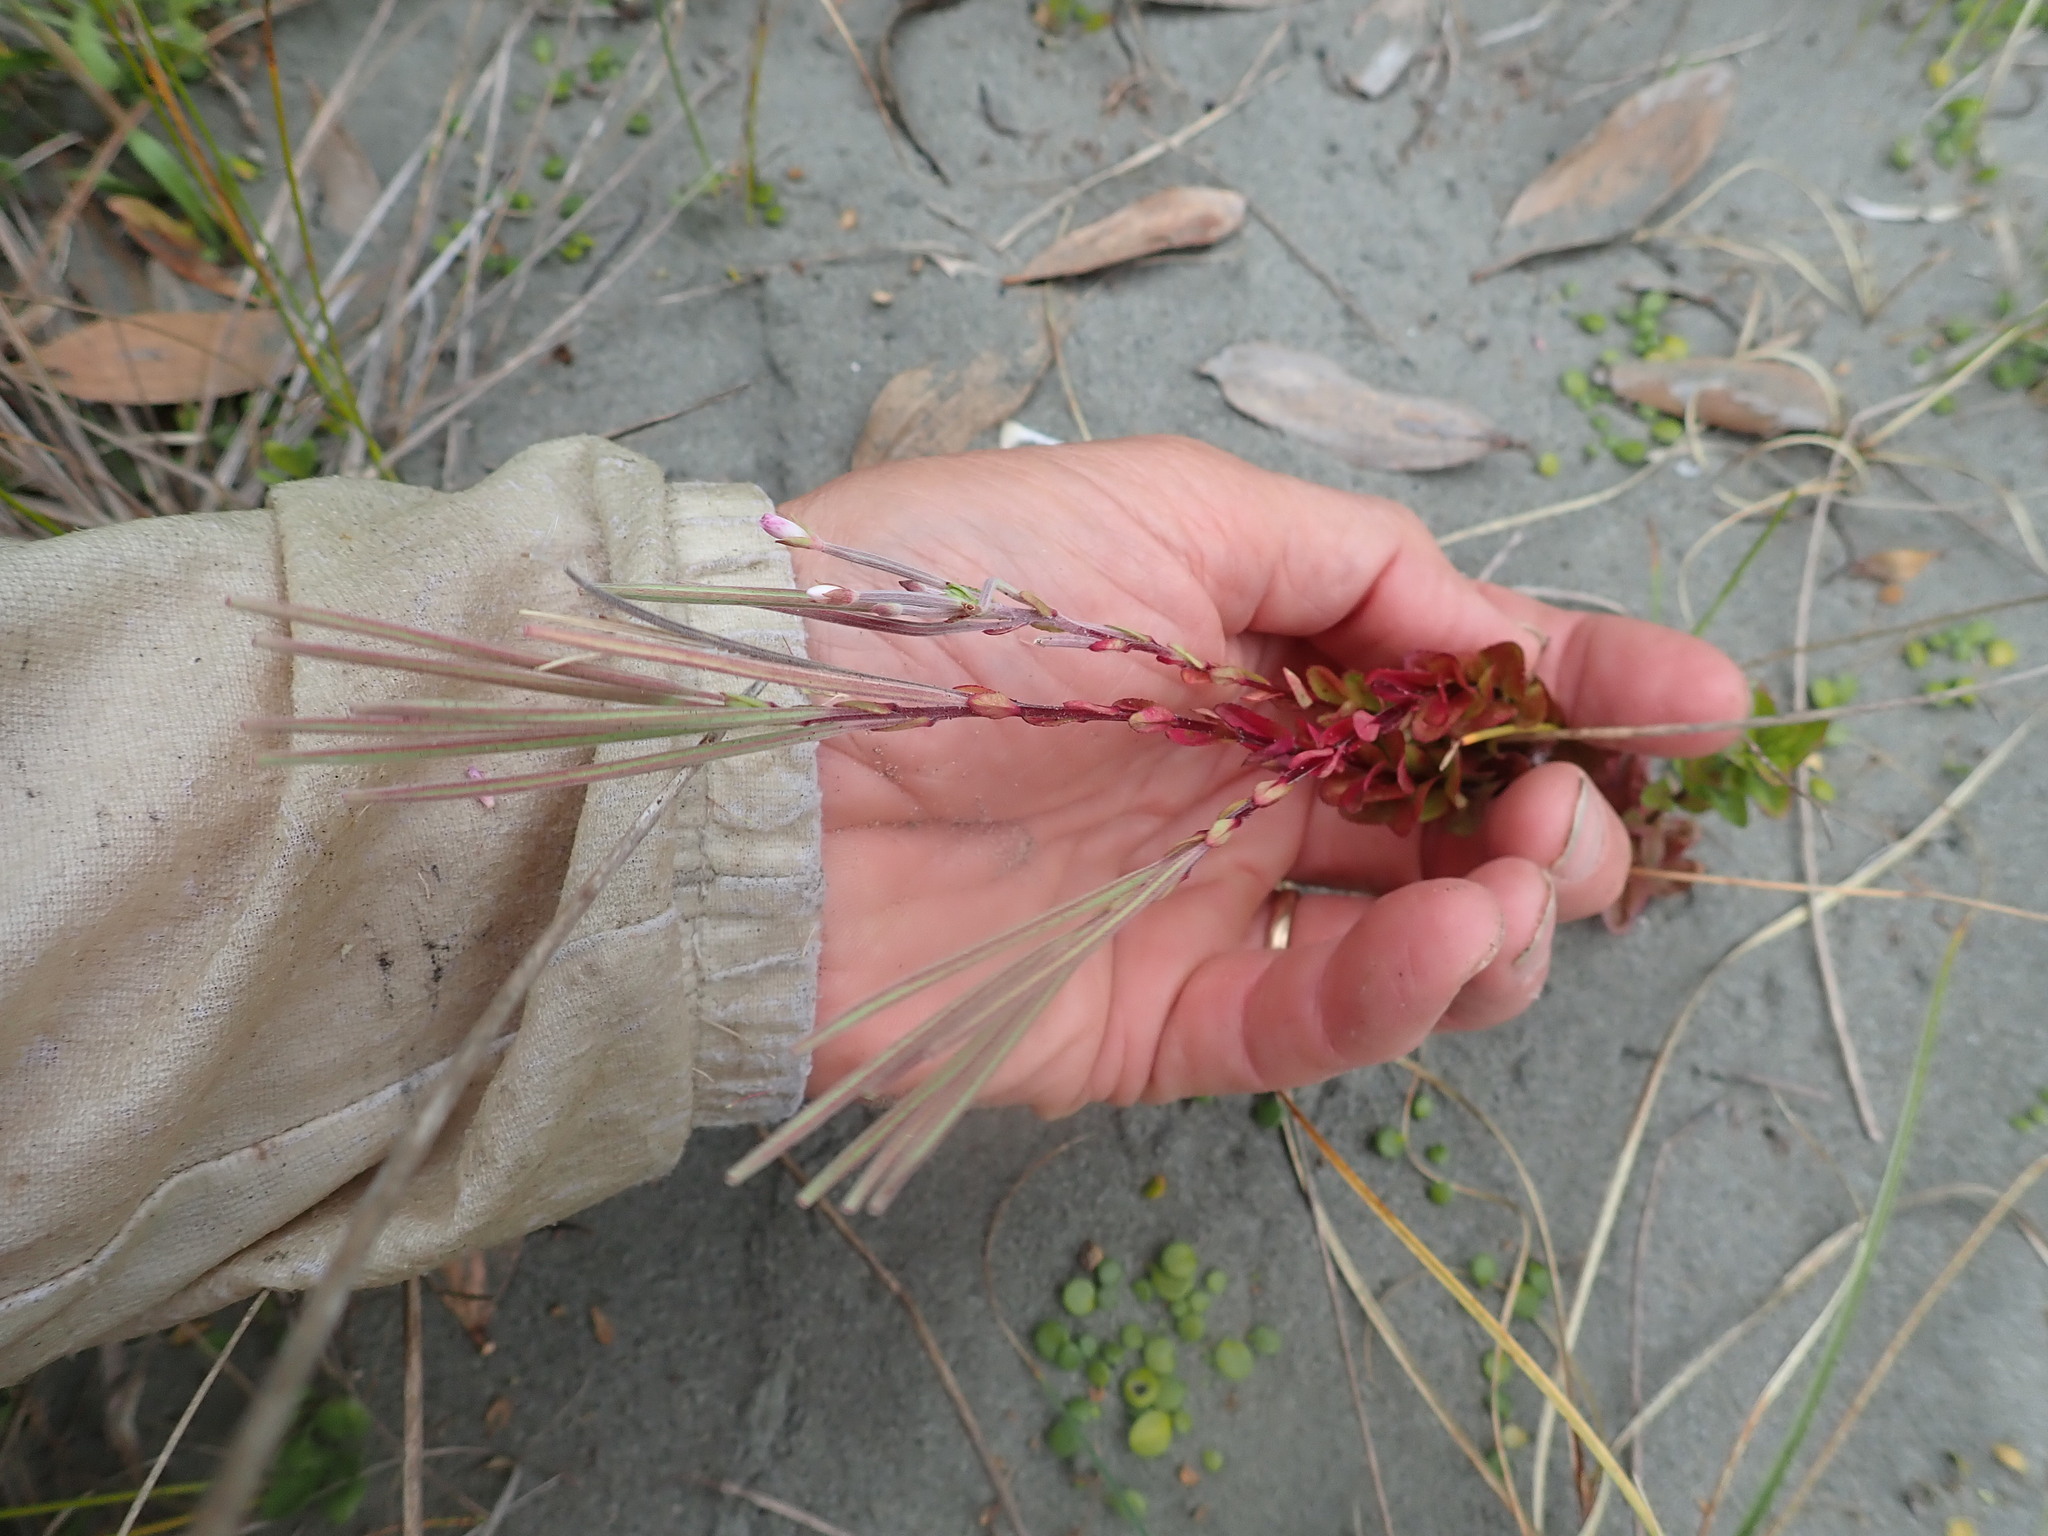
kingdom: Plantae
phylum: Tracheophyta
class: Magnoliopsida
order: Myrtales
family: Onagraceae
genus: Epilobium
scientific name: Epilobium billardiereanum
